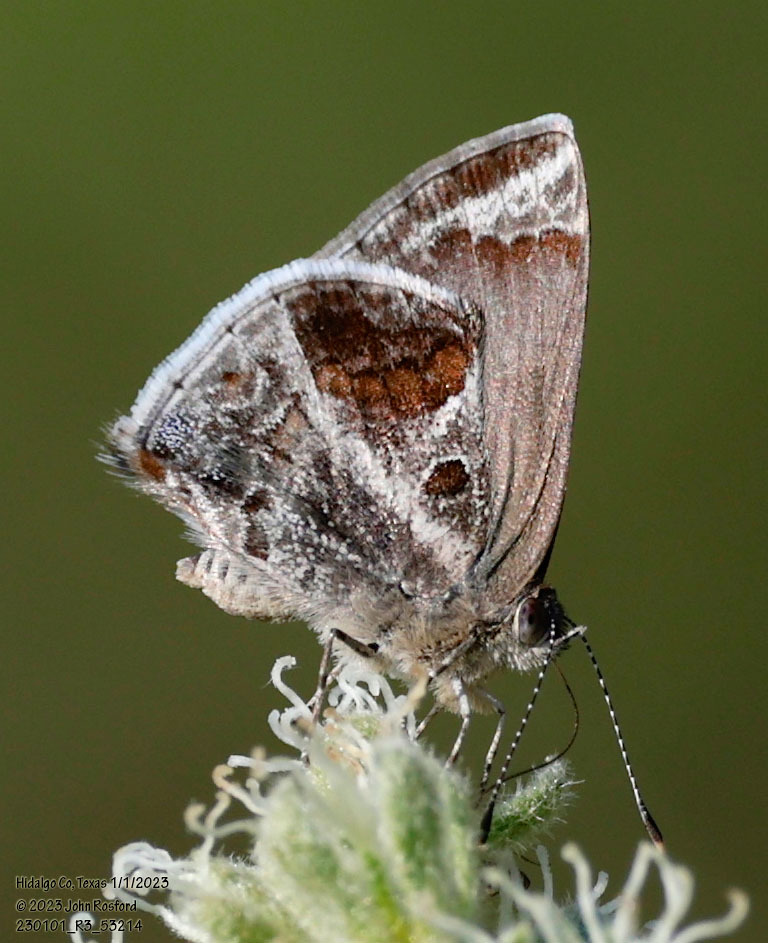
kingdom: Animalia
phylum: Arthropoda
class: Insecta
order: Lepidoptera
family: Lycaenidae
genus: Strymon
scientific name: Strymon bazochii
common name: Lantana scrub-hairstreak
